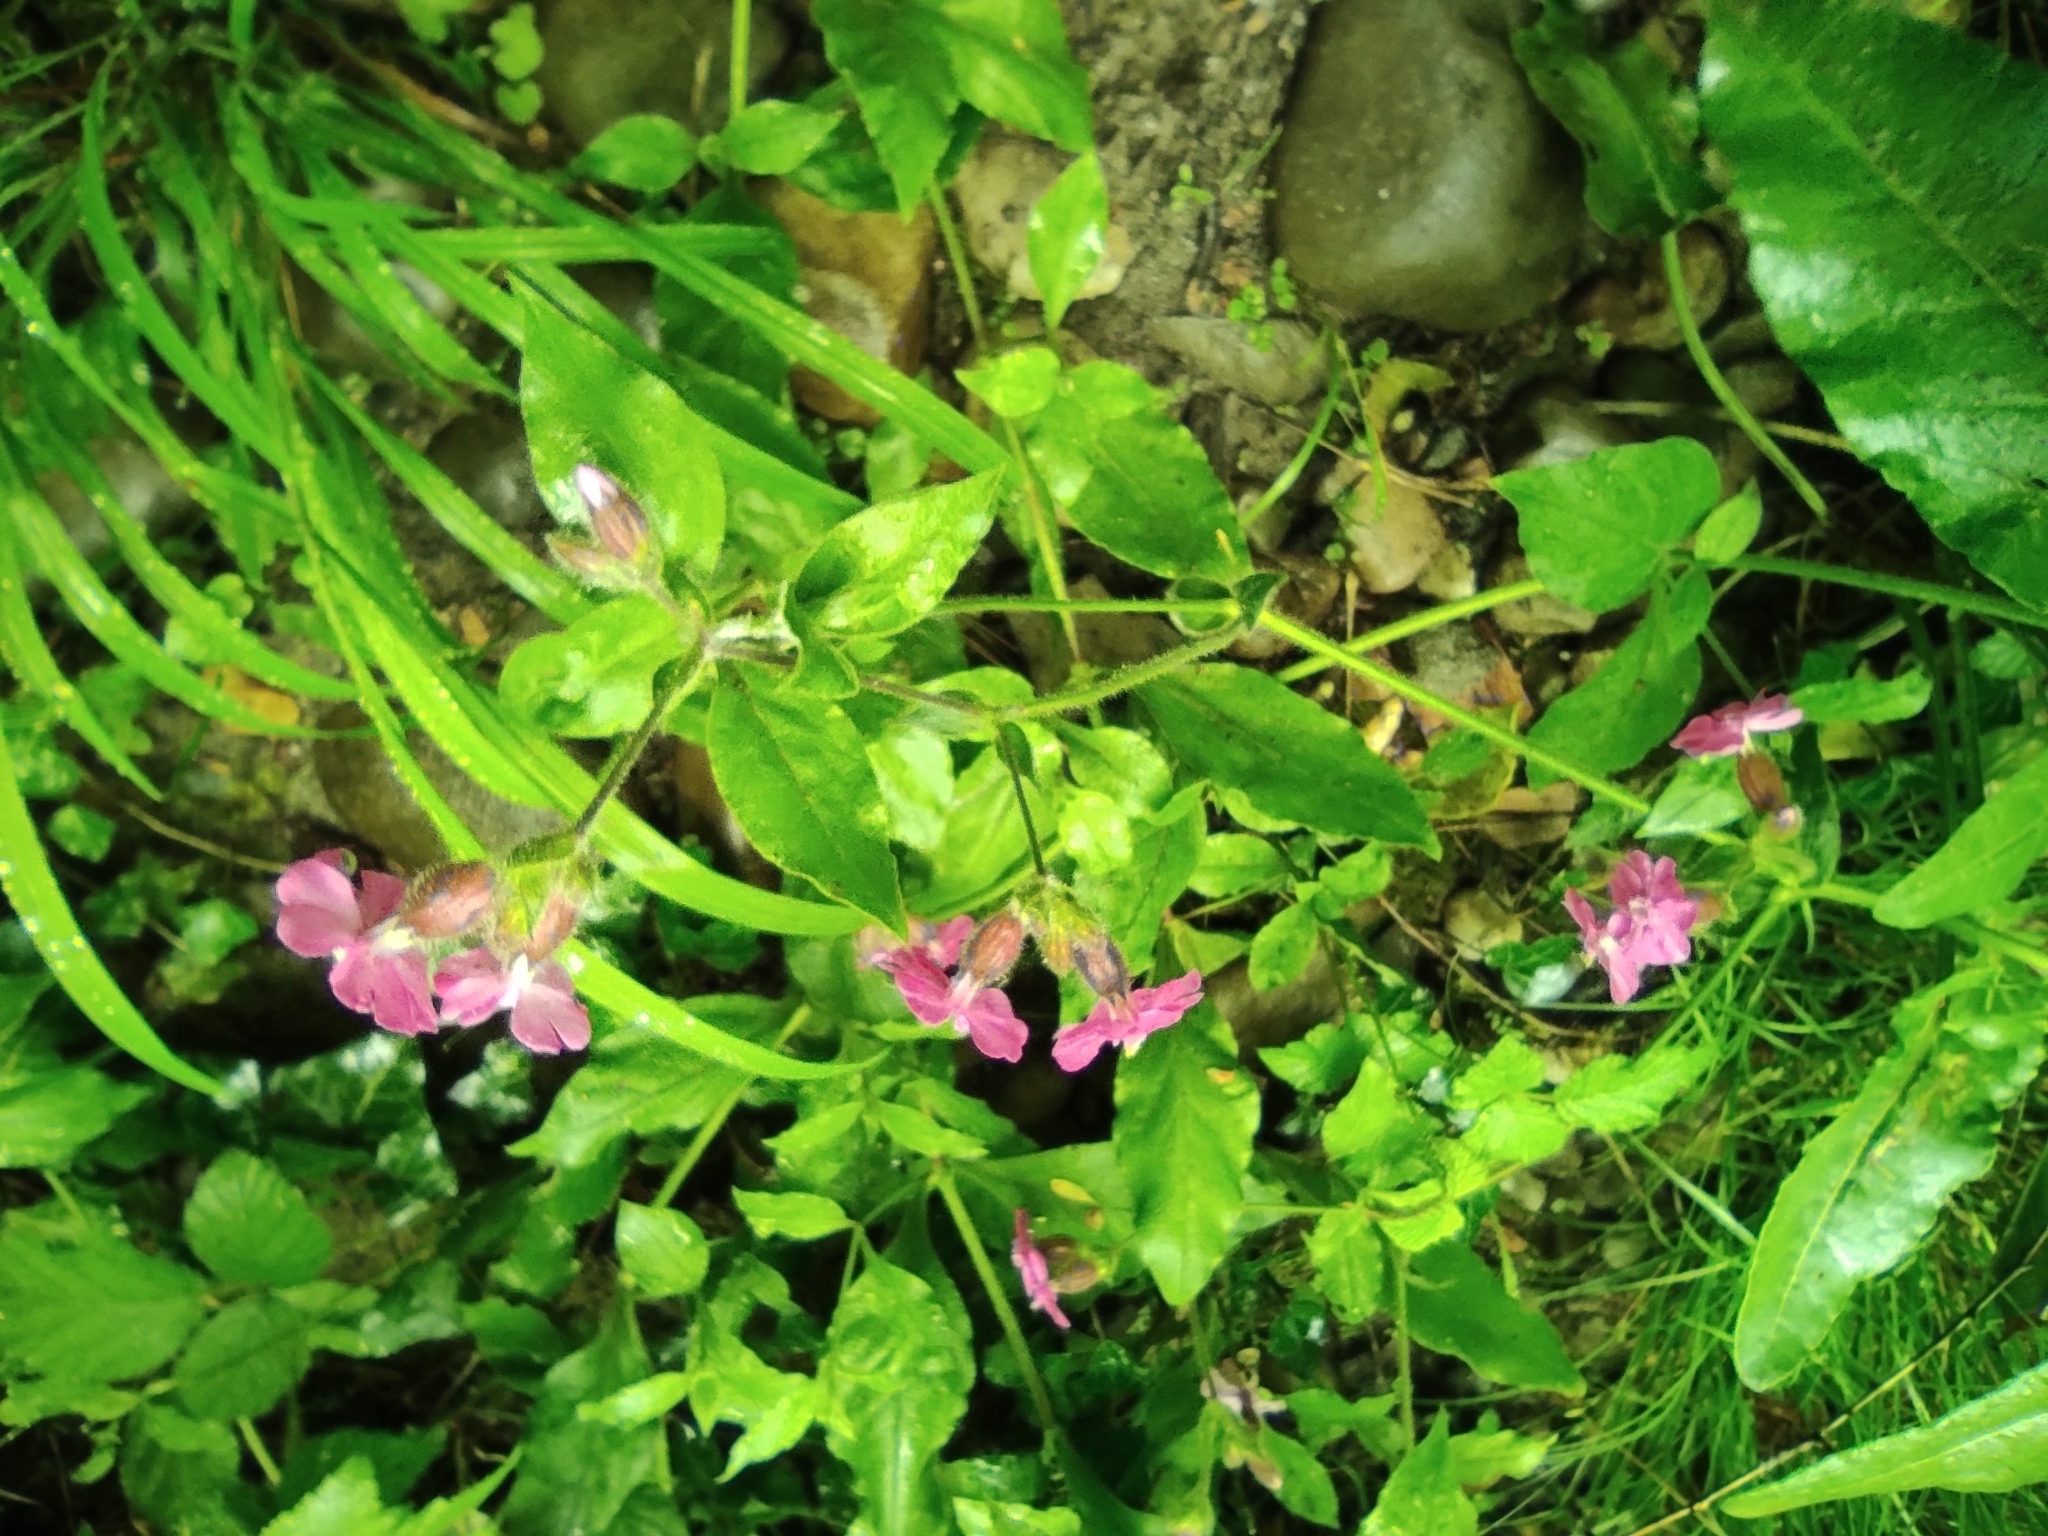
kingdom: Plantae
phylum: Tracheophyta
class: Magnoliopsida
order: Caryophyllales
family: Caryophyllaceae
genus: Silene
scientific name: Silene dioica
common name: Red campion
